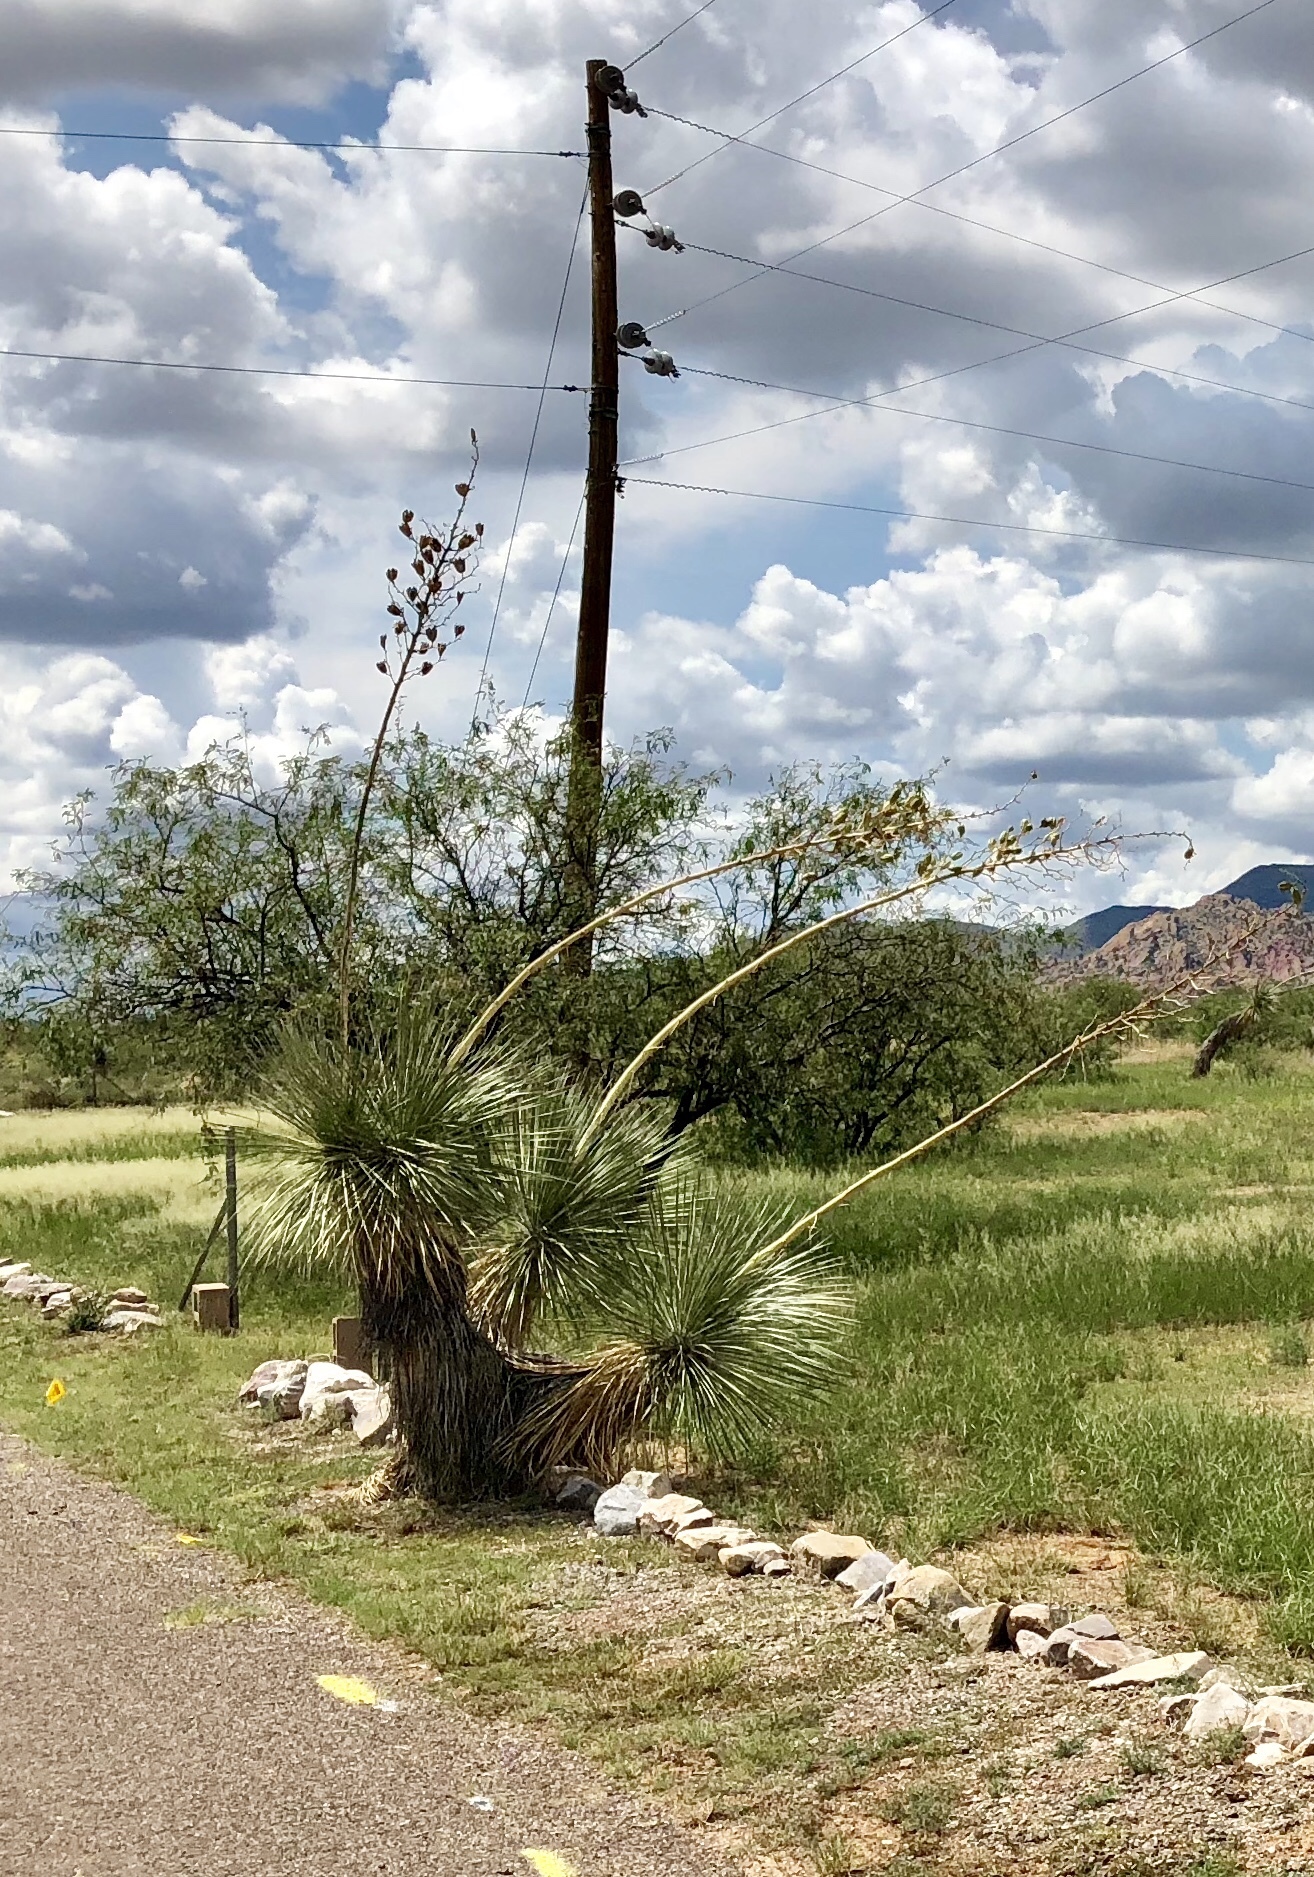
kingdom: Plantae
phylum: Tracheophyta
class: Liliopsida
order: Asparagales
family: Asparagaceae
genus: Yucca
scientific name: Yucca elata
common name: Palmella
